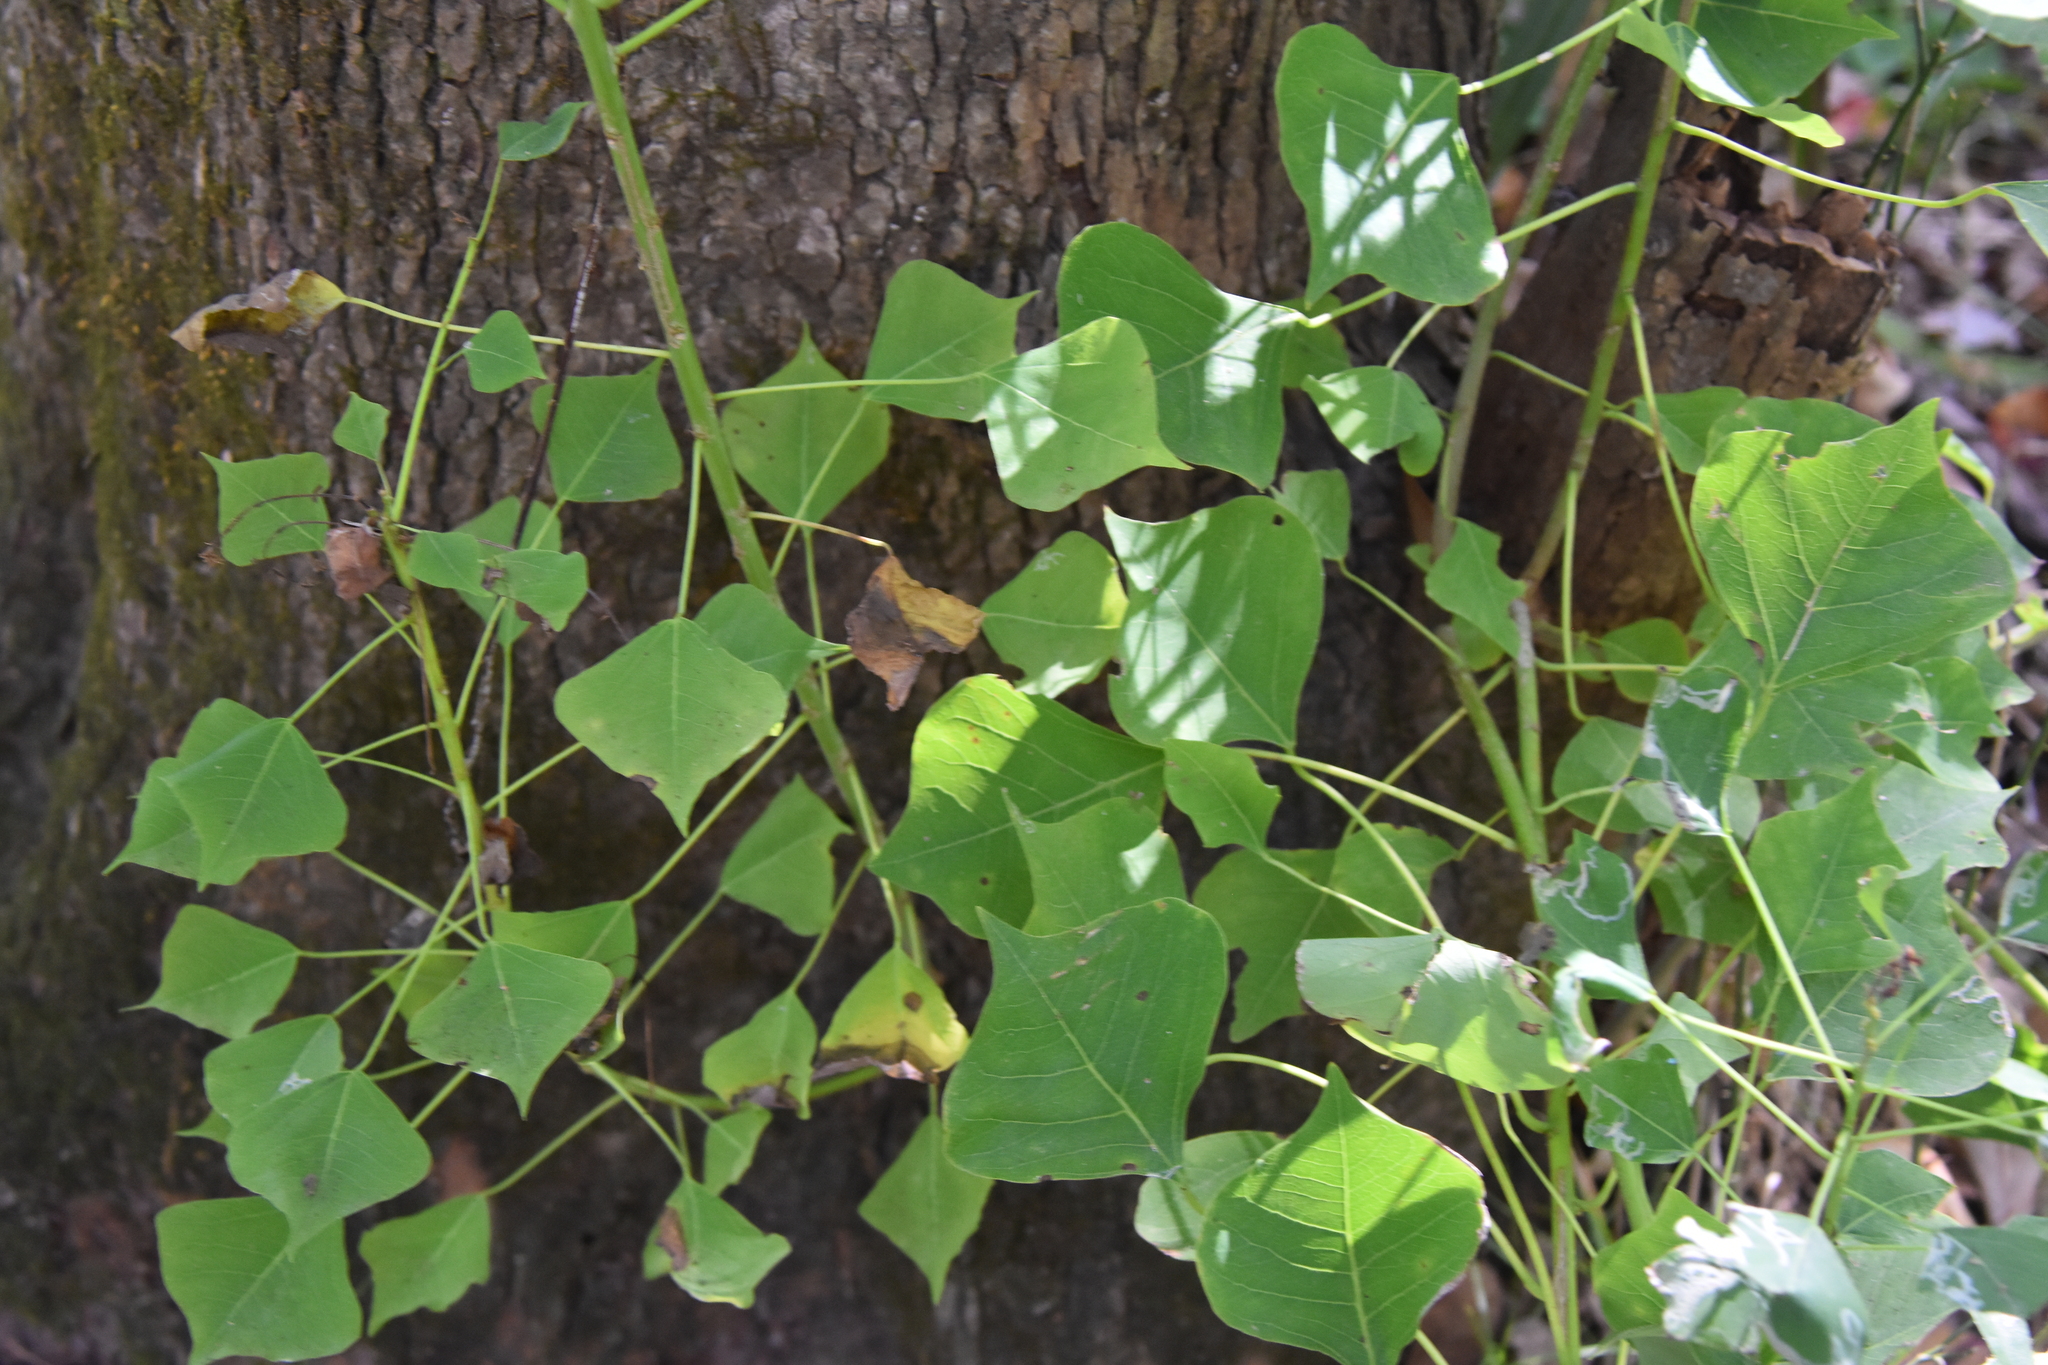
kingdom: Plantae
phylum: Tracheophyta
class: Magnoliopsida
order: Malpighiales
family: Euphorbiaceae
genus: Triadica
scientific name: Triadica sebifera
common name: Chinese tallow
